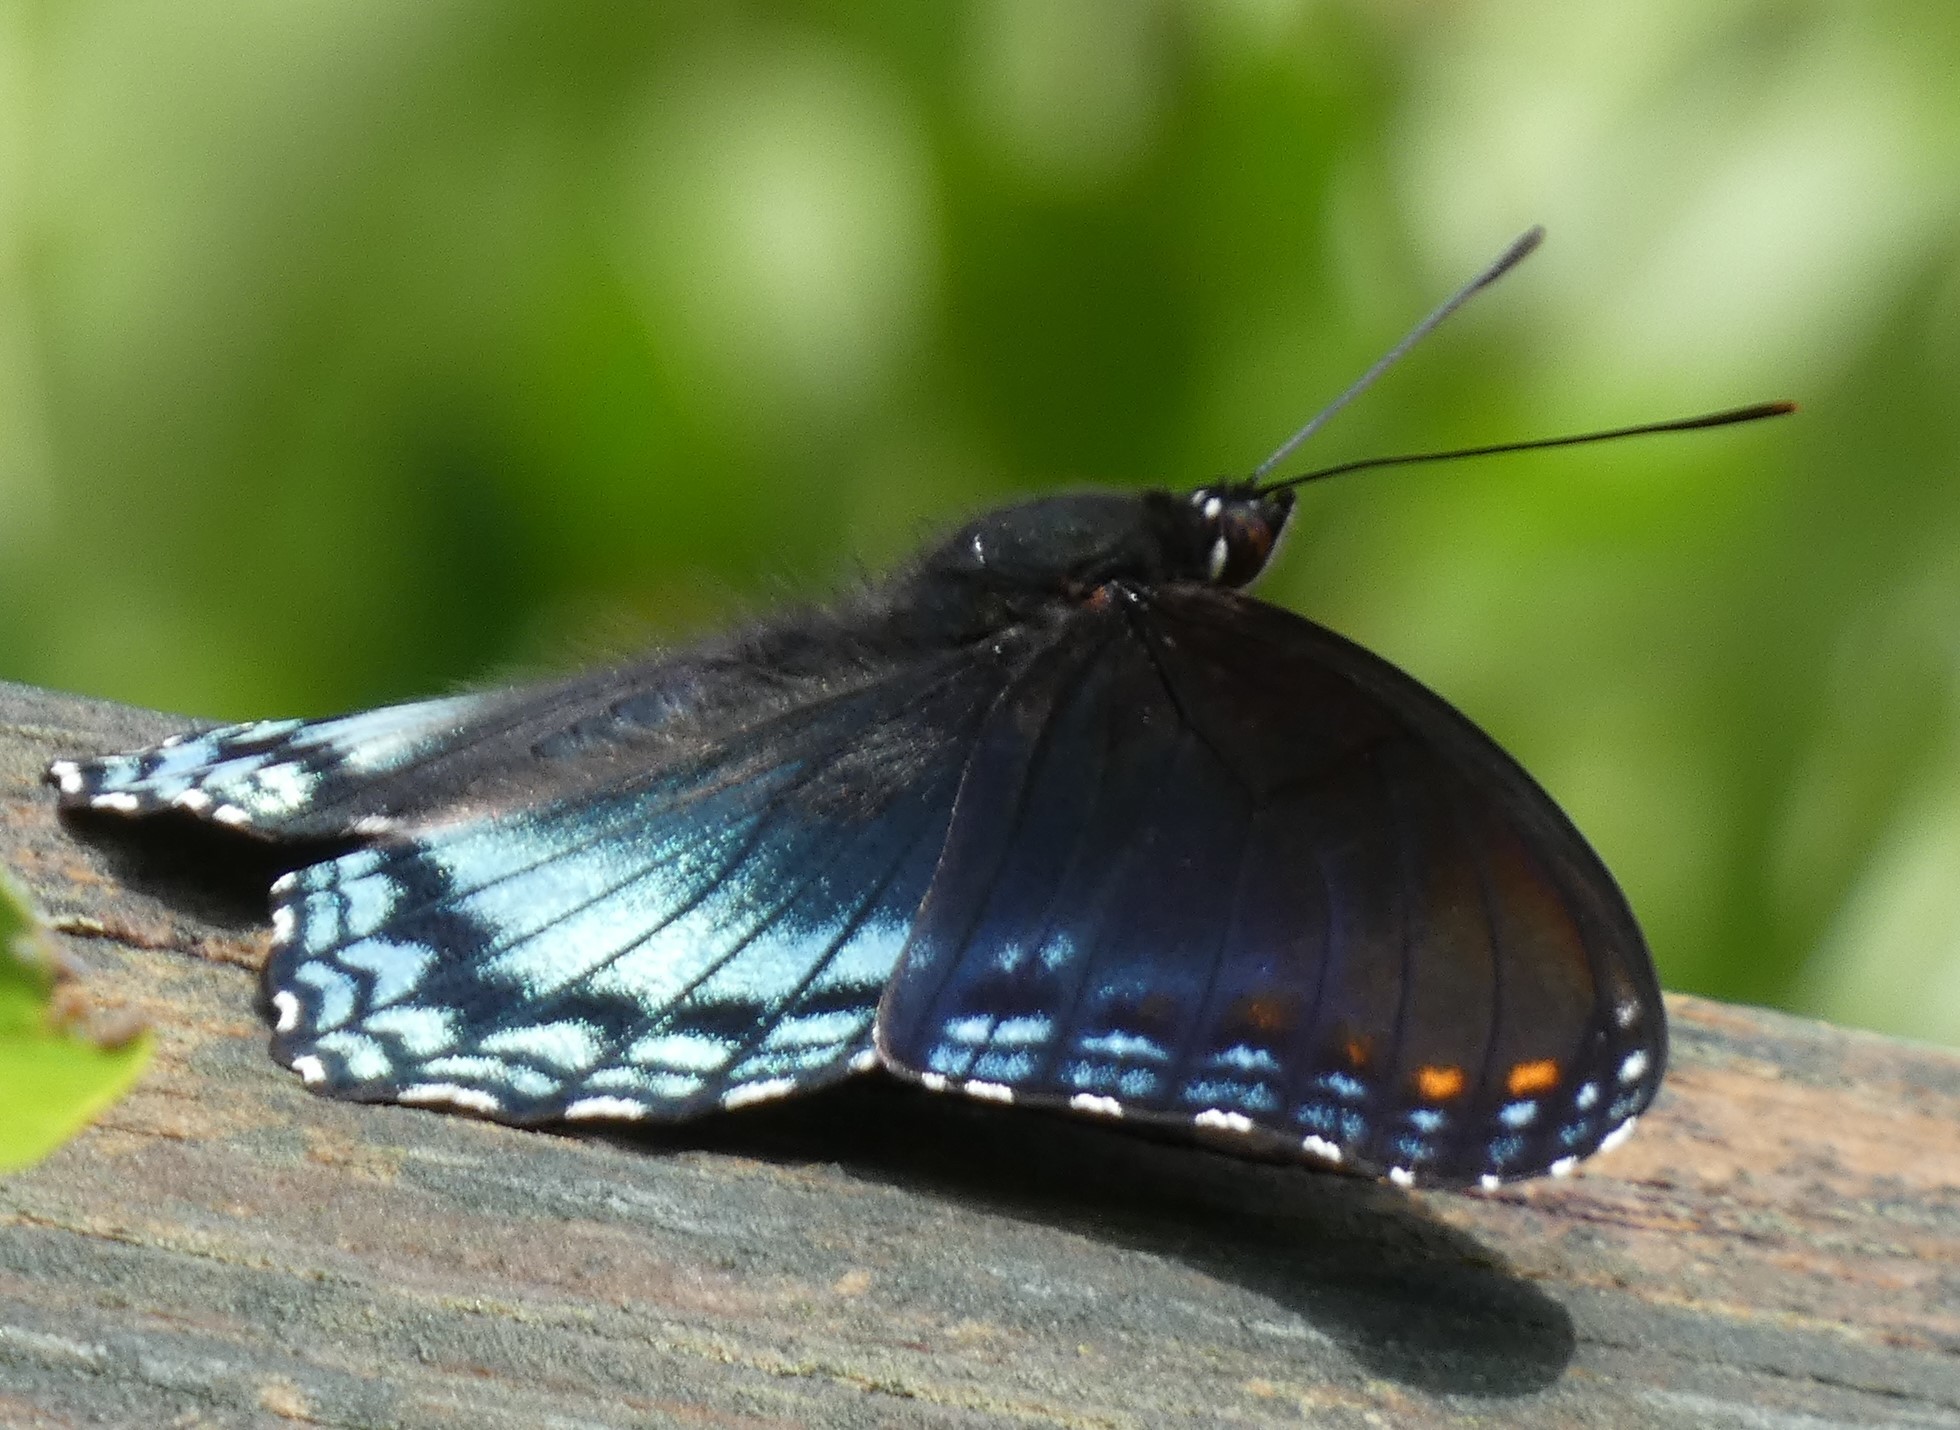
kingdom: Animalia
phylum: Arthropoda
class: Insecta
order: Lepidoptera
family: Nymphalidae
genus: Limenitis
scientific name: Limenitis astyanax
